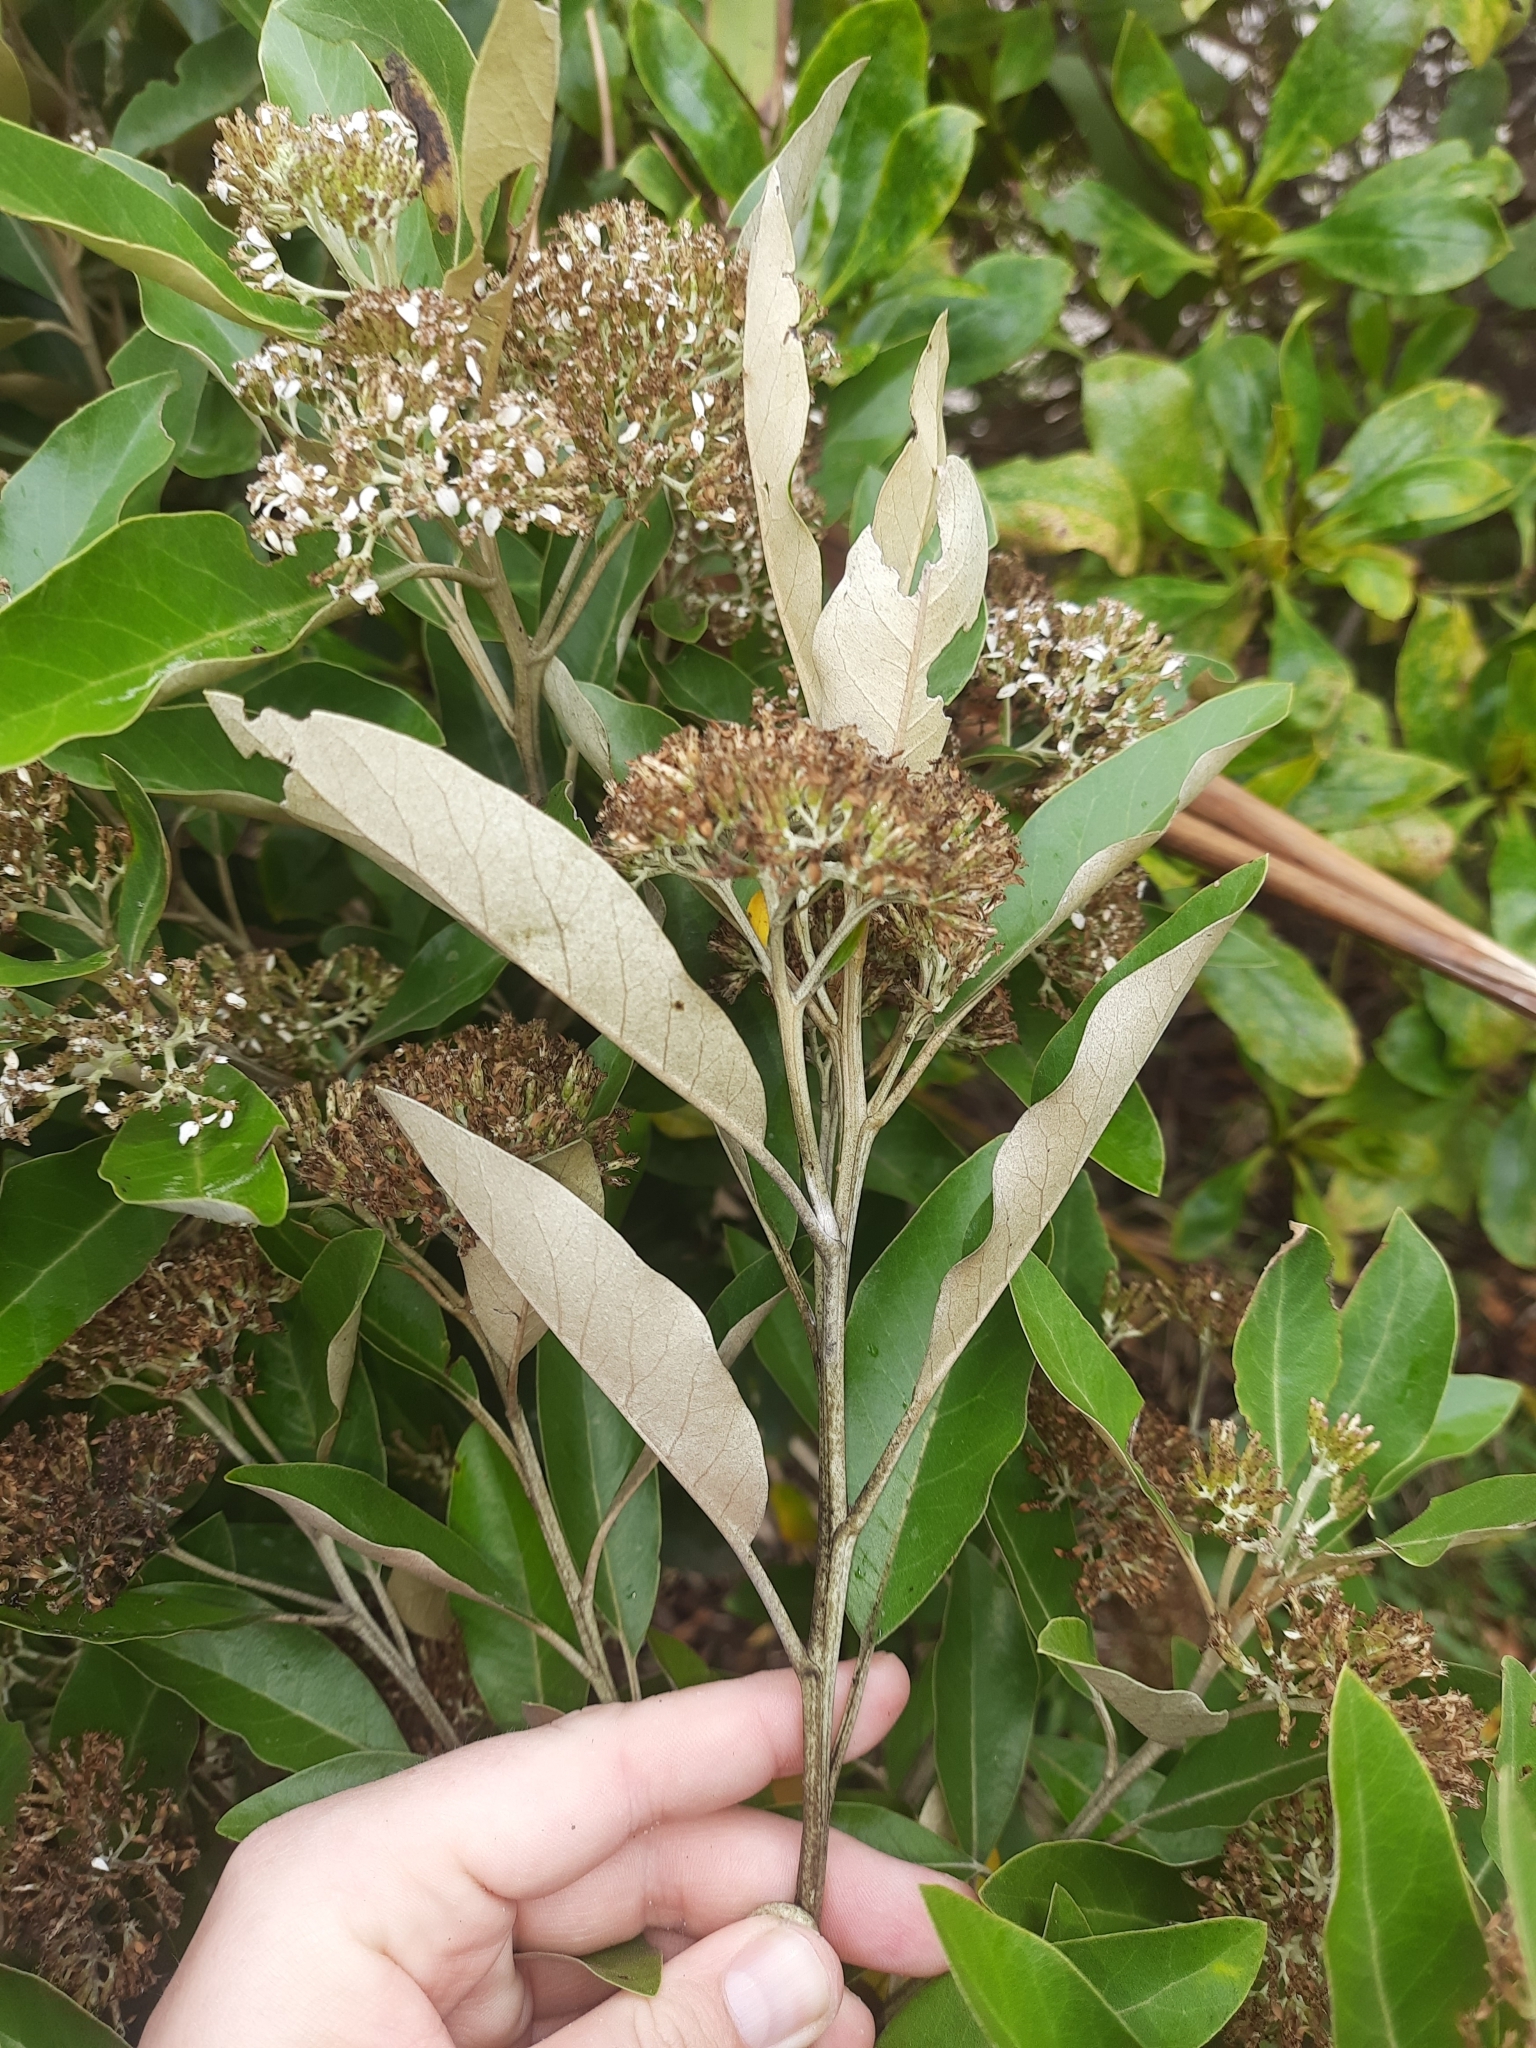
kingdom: Plantae
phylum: Tracheophyta
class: Magnoliopsida
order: Asterales
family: Asteraceae
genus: Olearia
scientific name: Olearia avicenniifolia
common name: Mangrove-leaf daisybush
